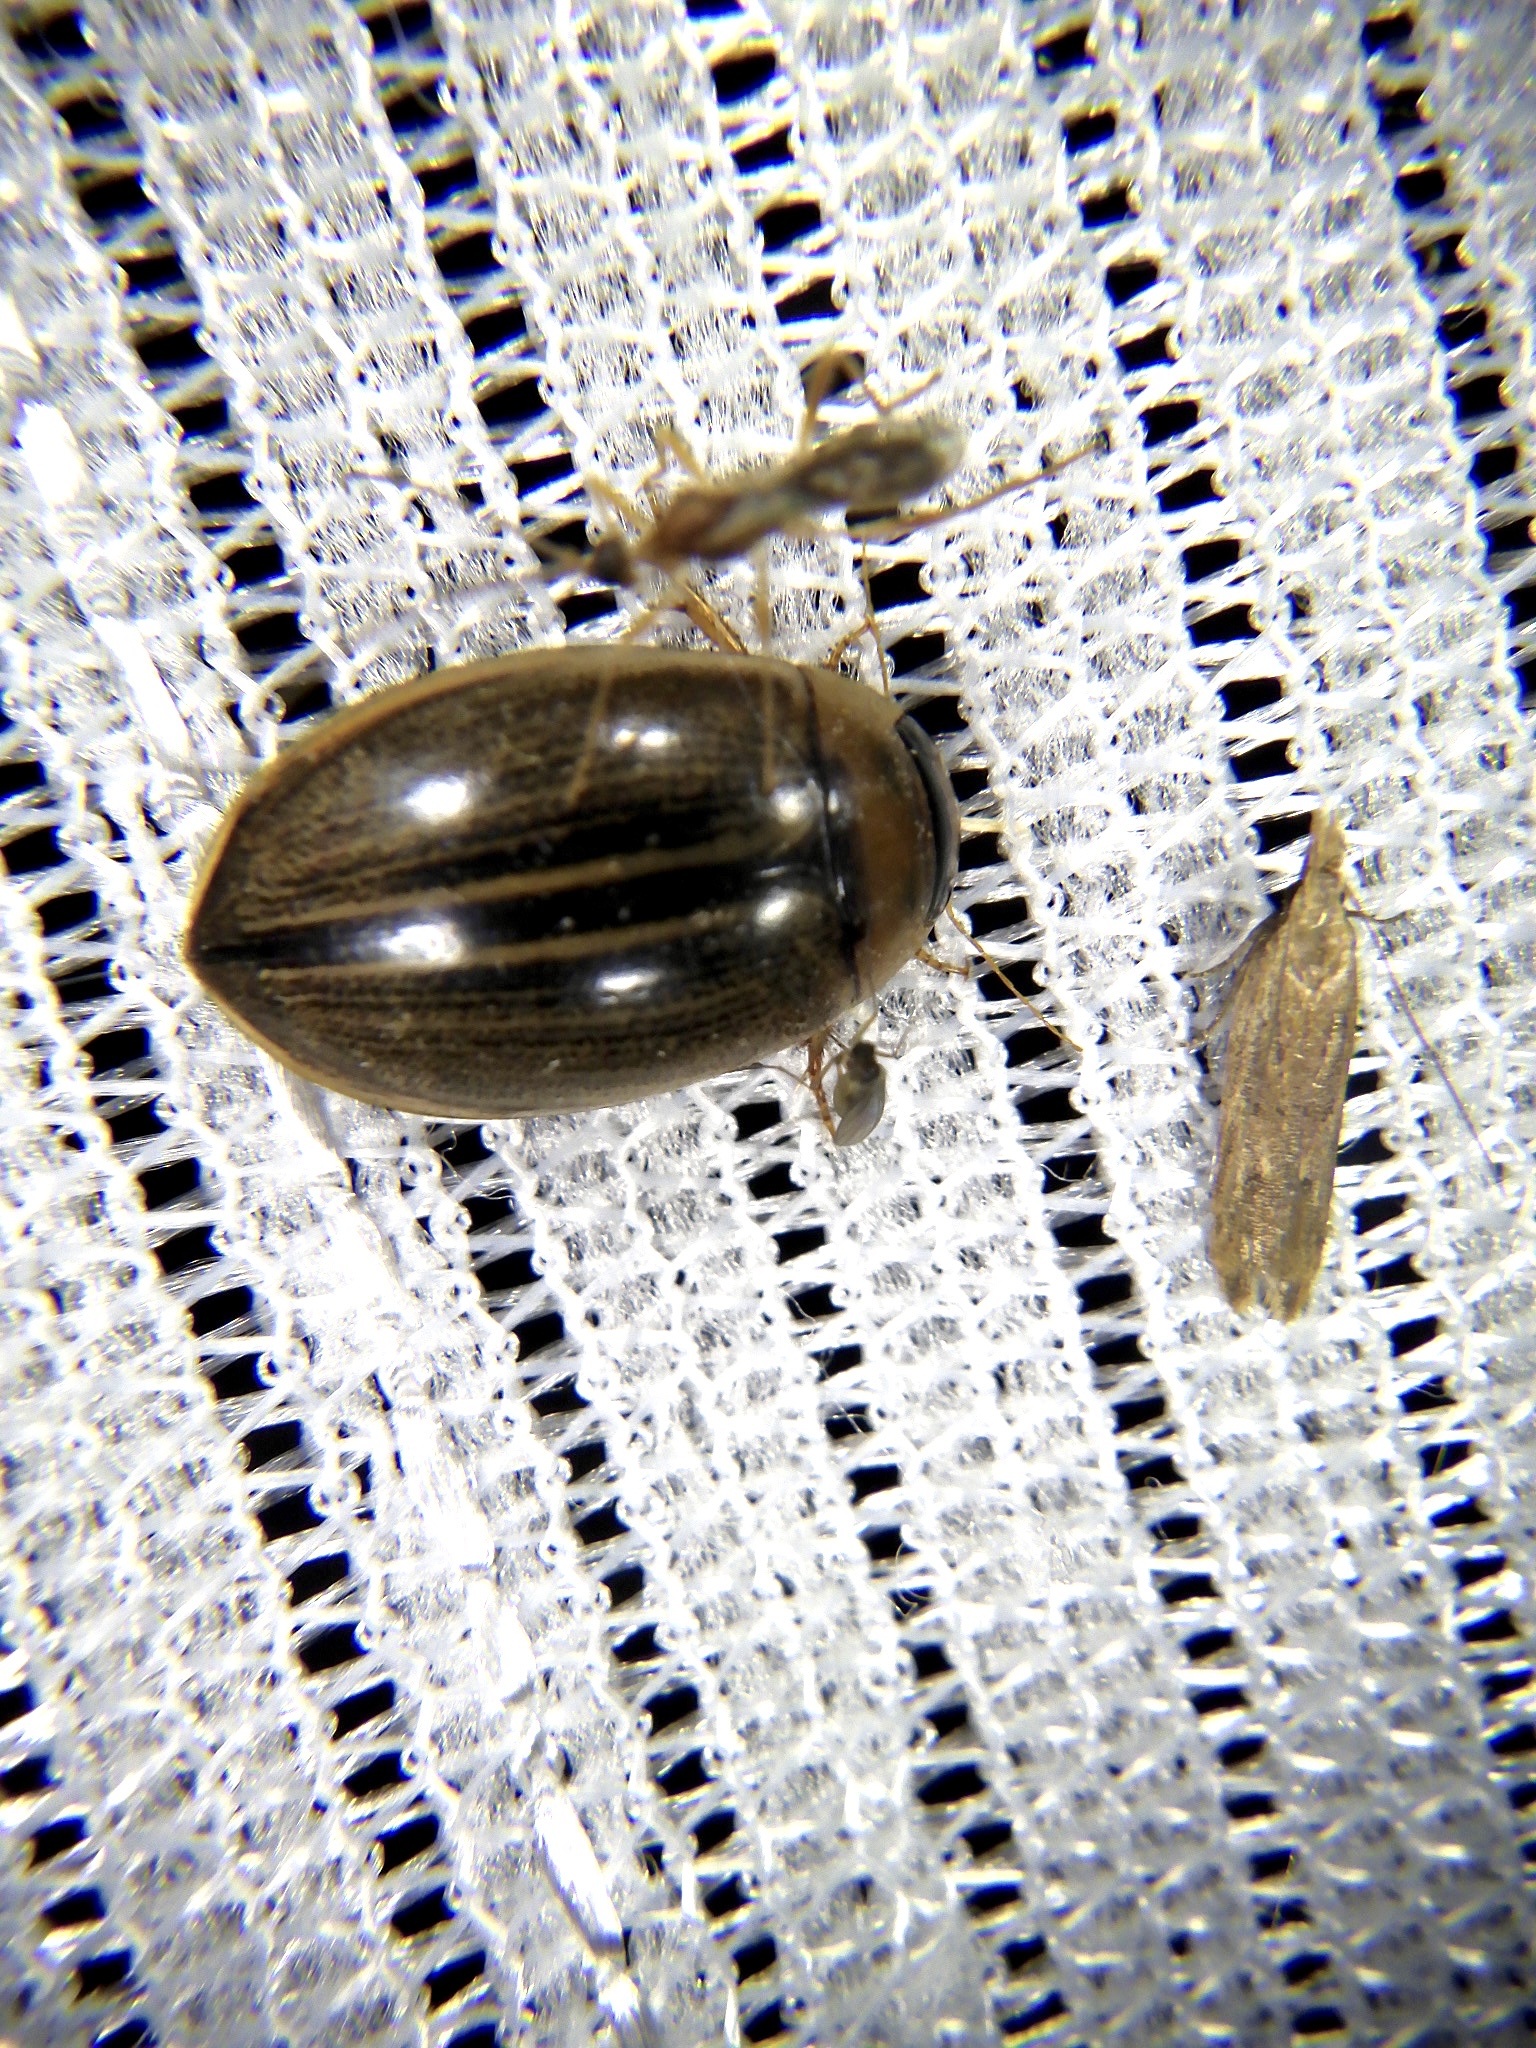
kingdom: Animalia
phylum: Arthropoda
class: Insecta
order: Coleoptera
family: Dytiscidae
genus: Hydaticus
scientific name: Hydaticus grammicus
